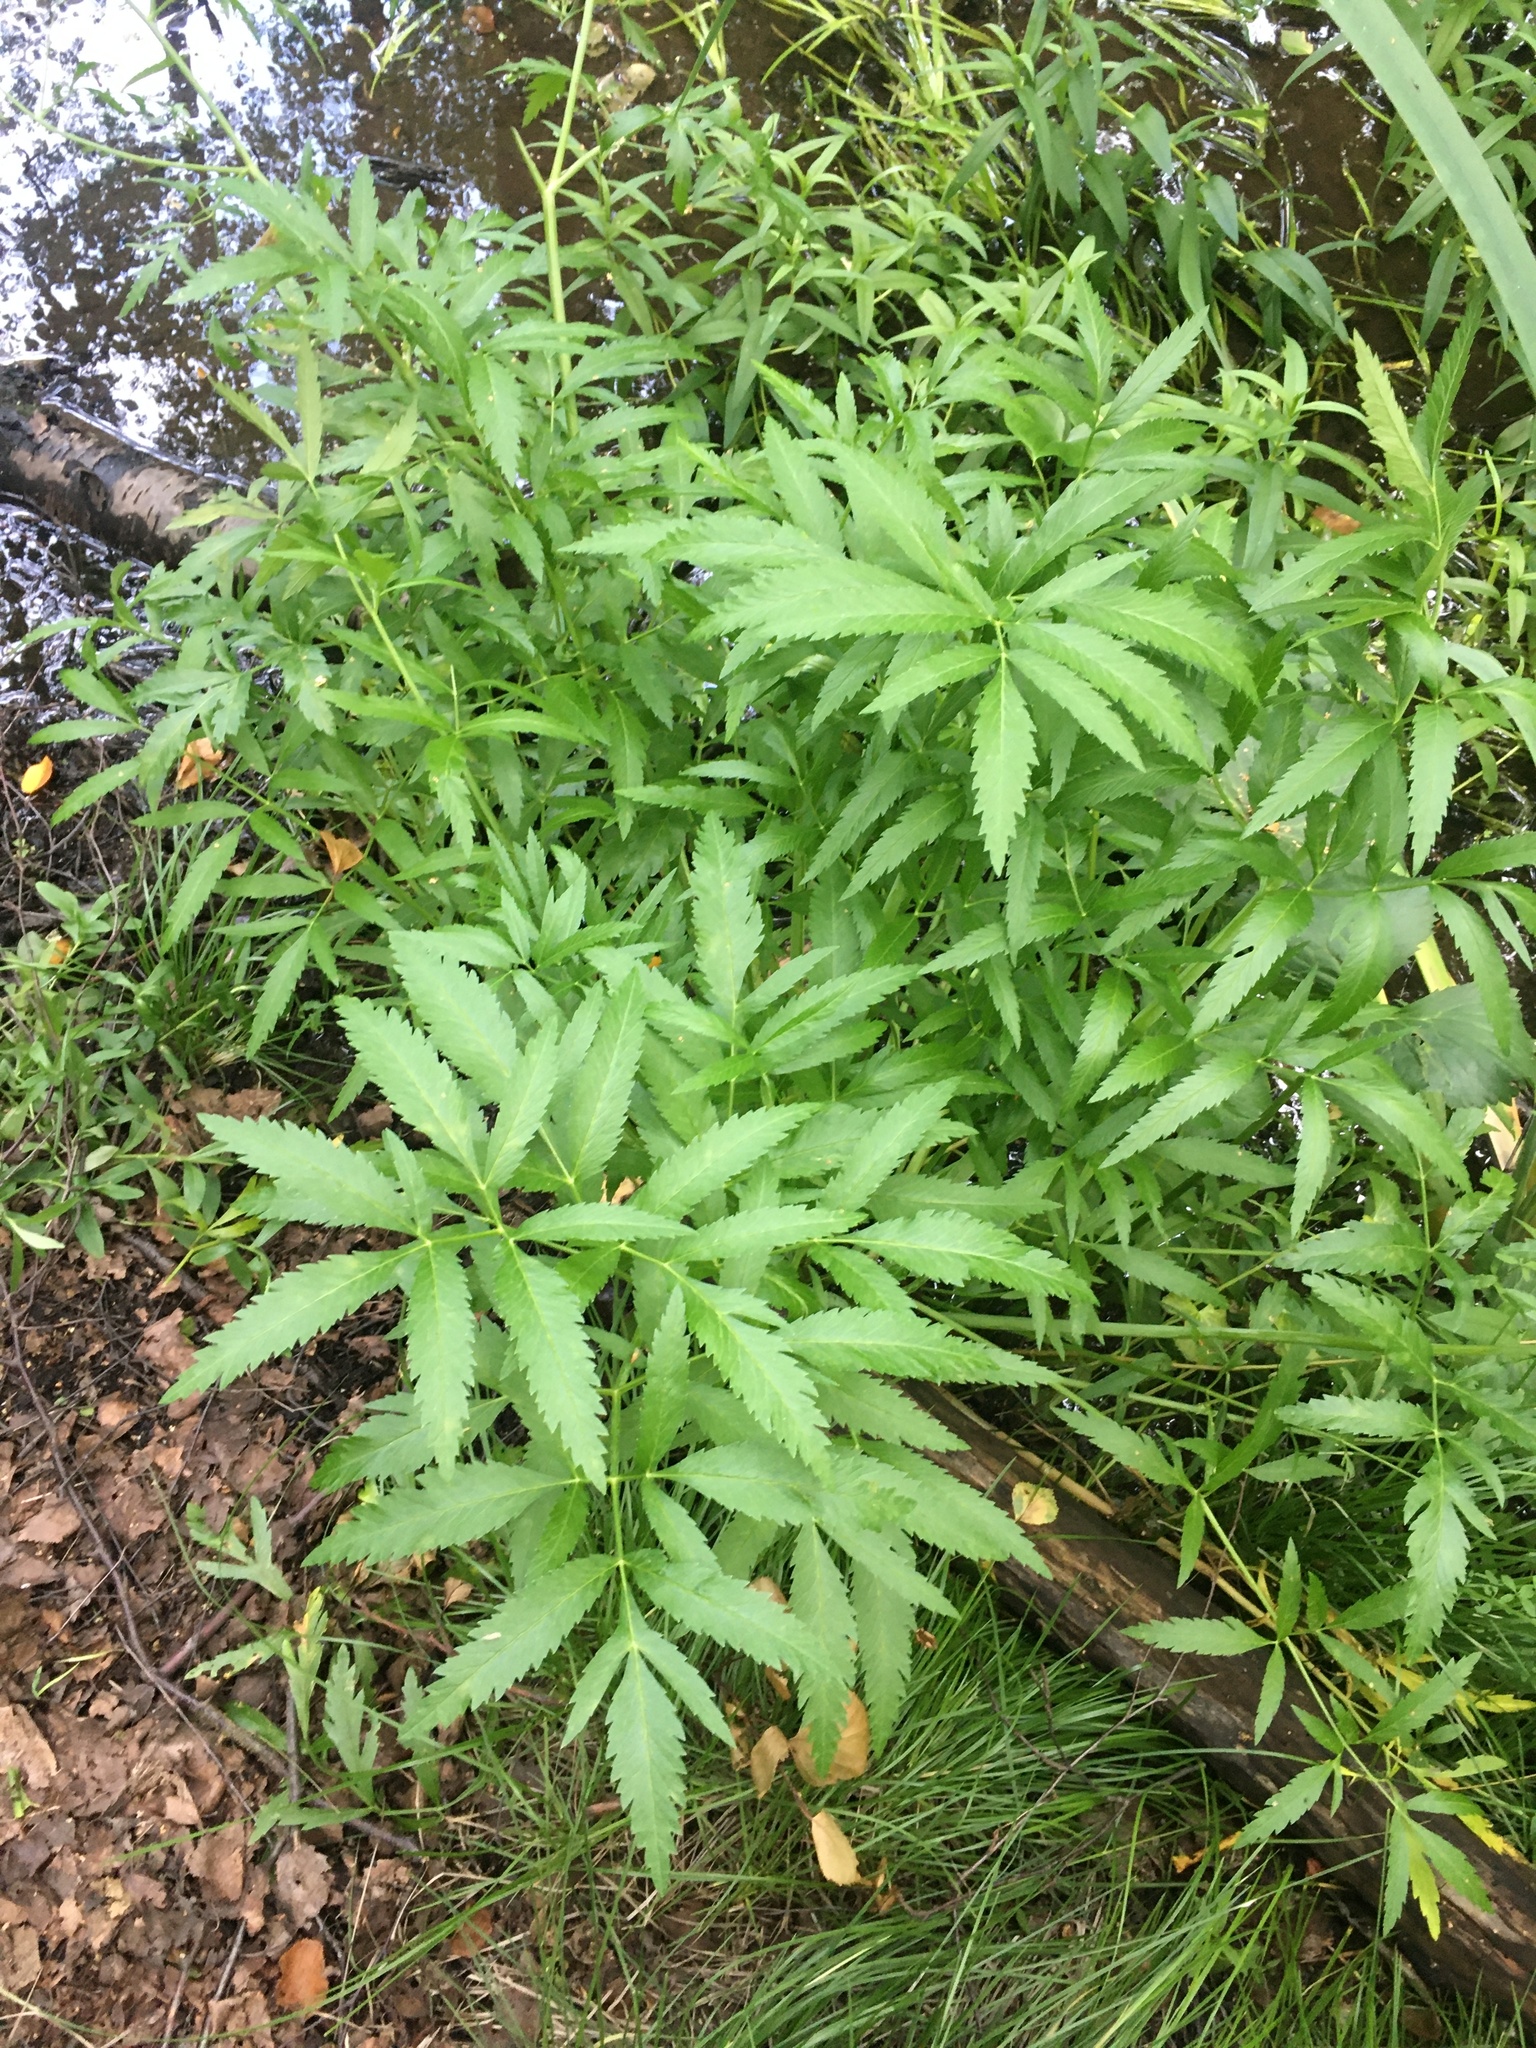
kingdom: Plantae
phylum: Tracheophyta
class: Magnoliopsida
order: Apiales
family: Apiaceae
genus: Cicuta
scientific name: Cicuta virosa
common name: Cowbane
